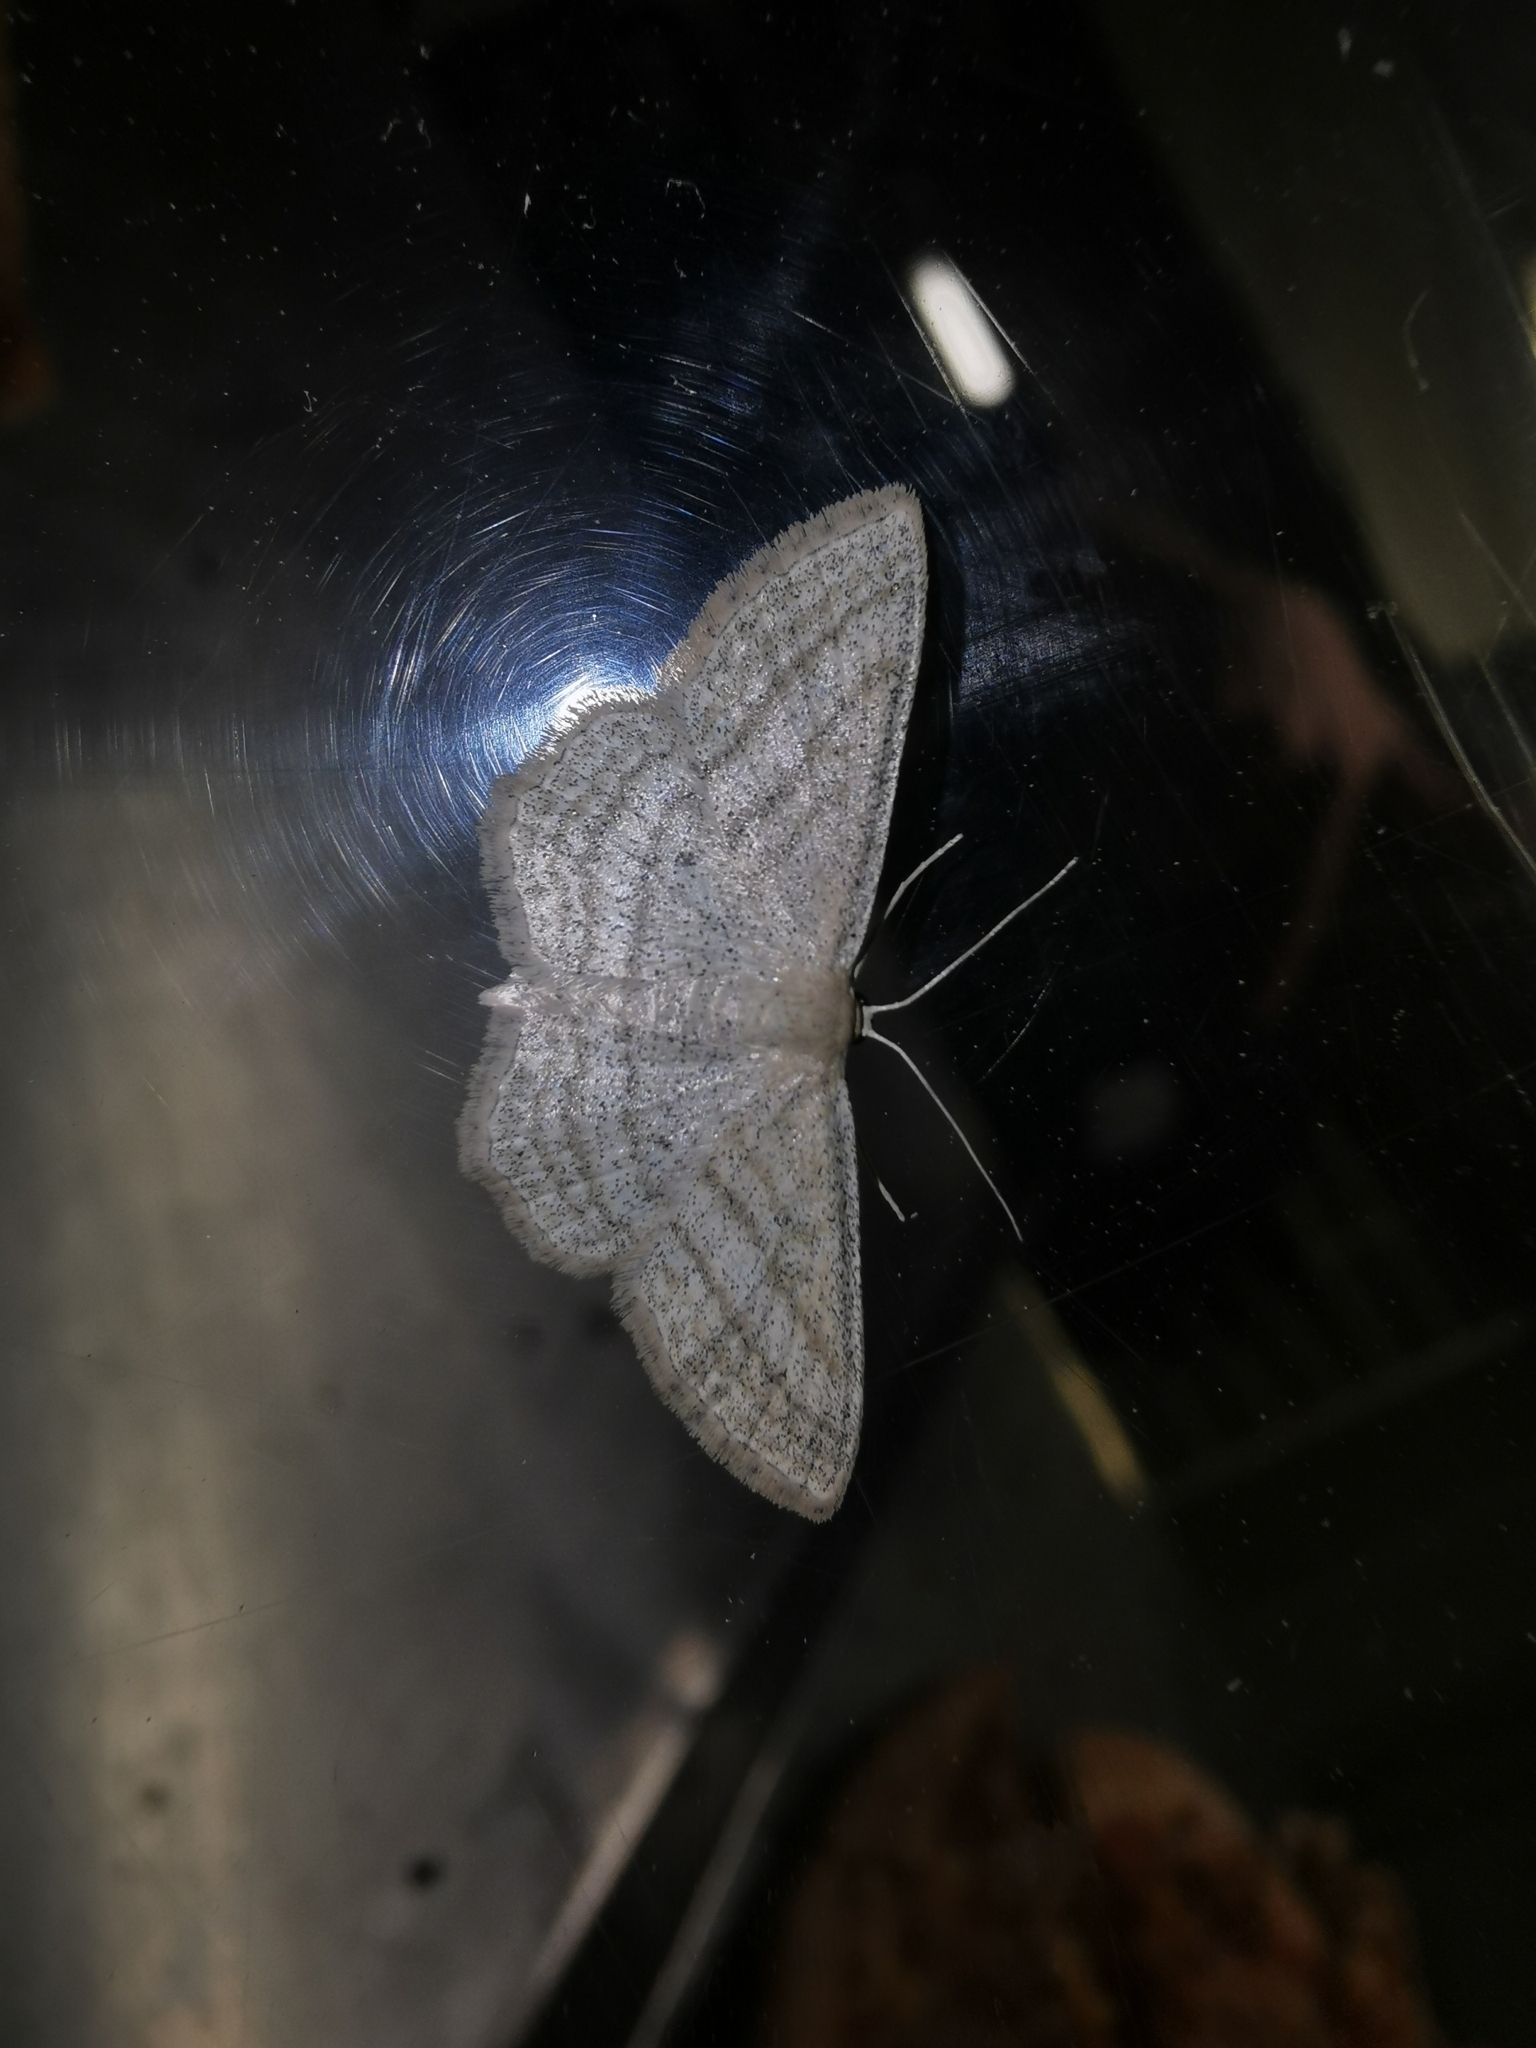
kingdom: Animalia
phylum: Arthropoda
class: Insecta
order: Lepidoptera
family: Geometridae
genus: Scopula
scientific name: Scopula virgulata
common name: Streaked wave
